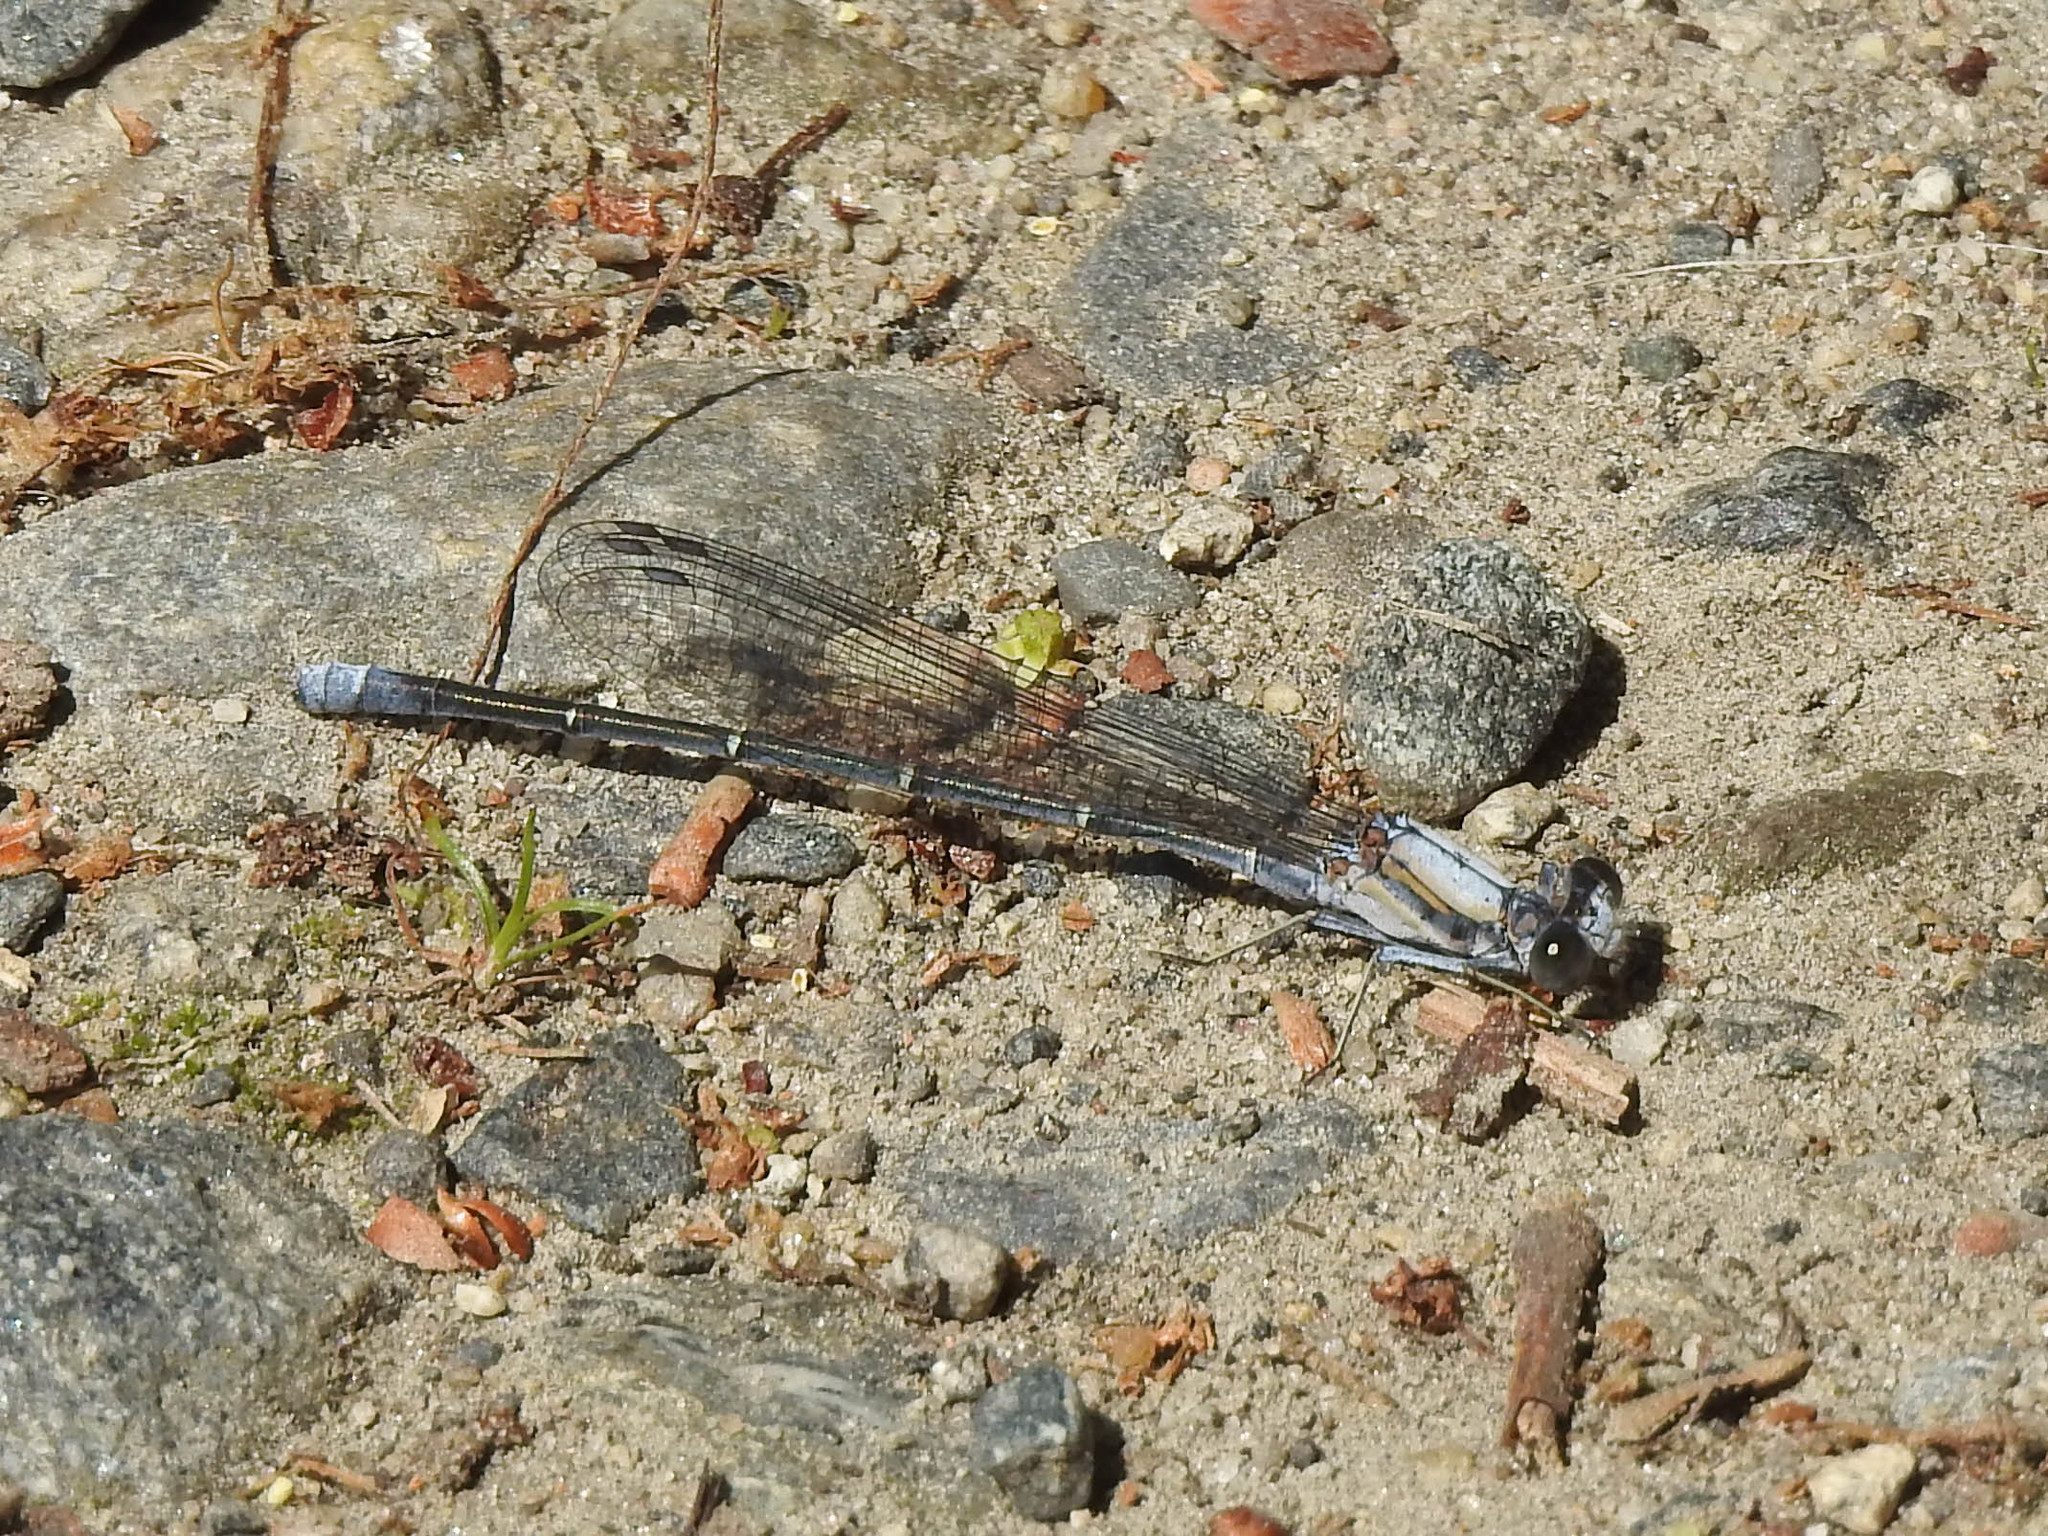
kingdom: Animalia
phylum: Arthropoda
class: Insecta
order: Odonata
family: Coenagrionidae
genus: Argia
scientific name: Argia moesta
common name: Powdered dancer
